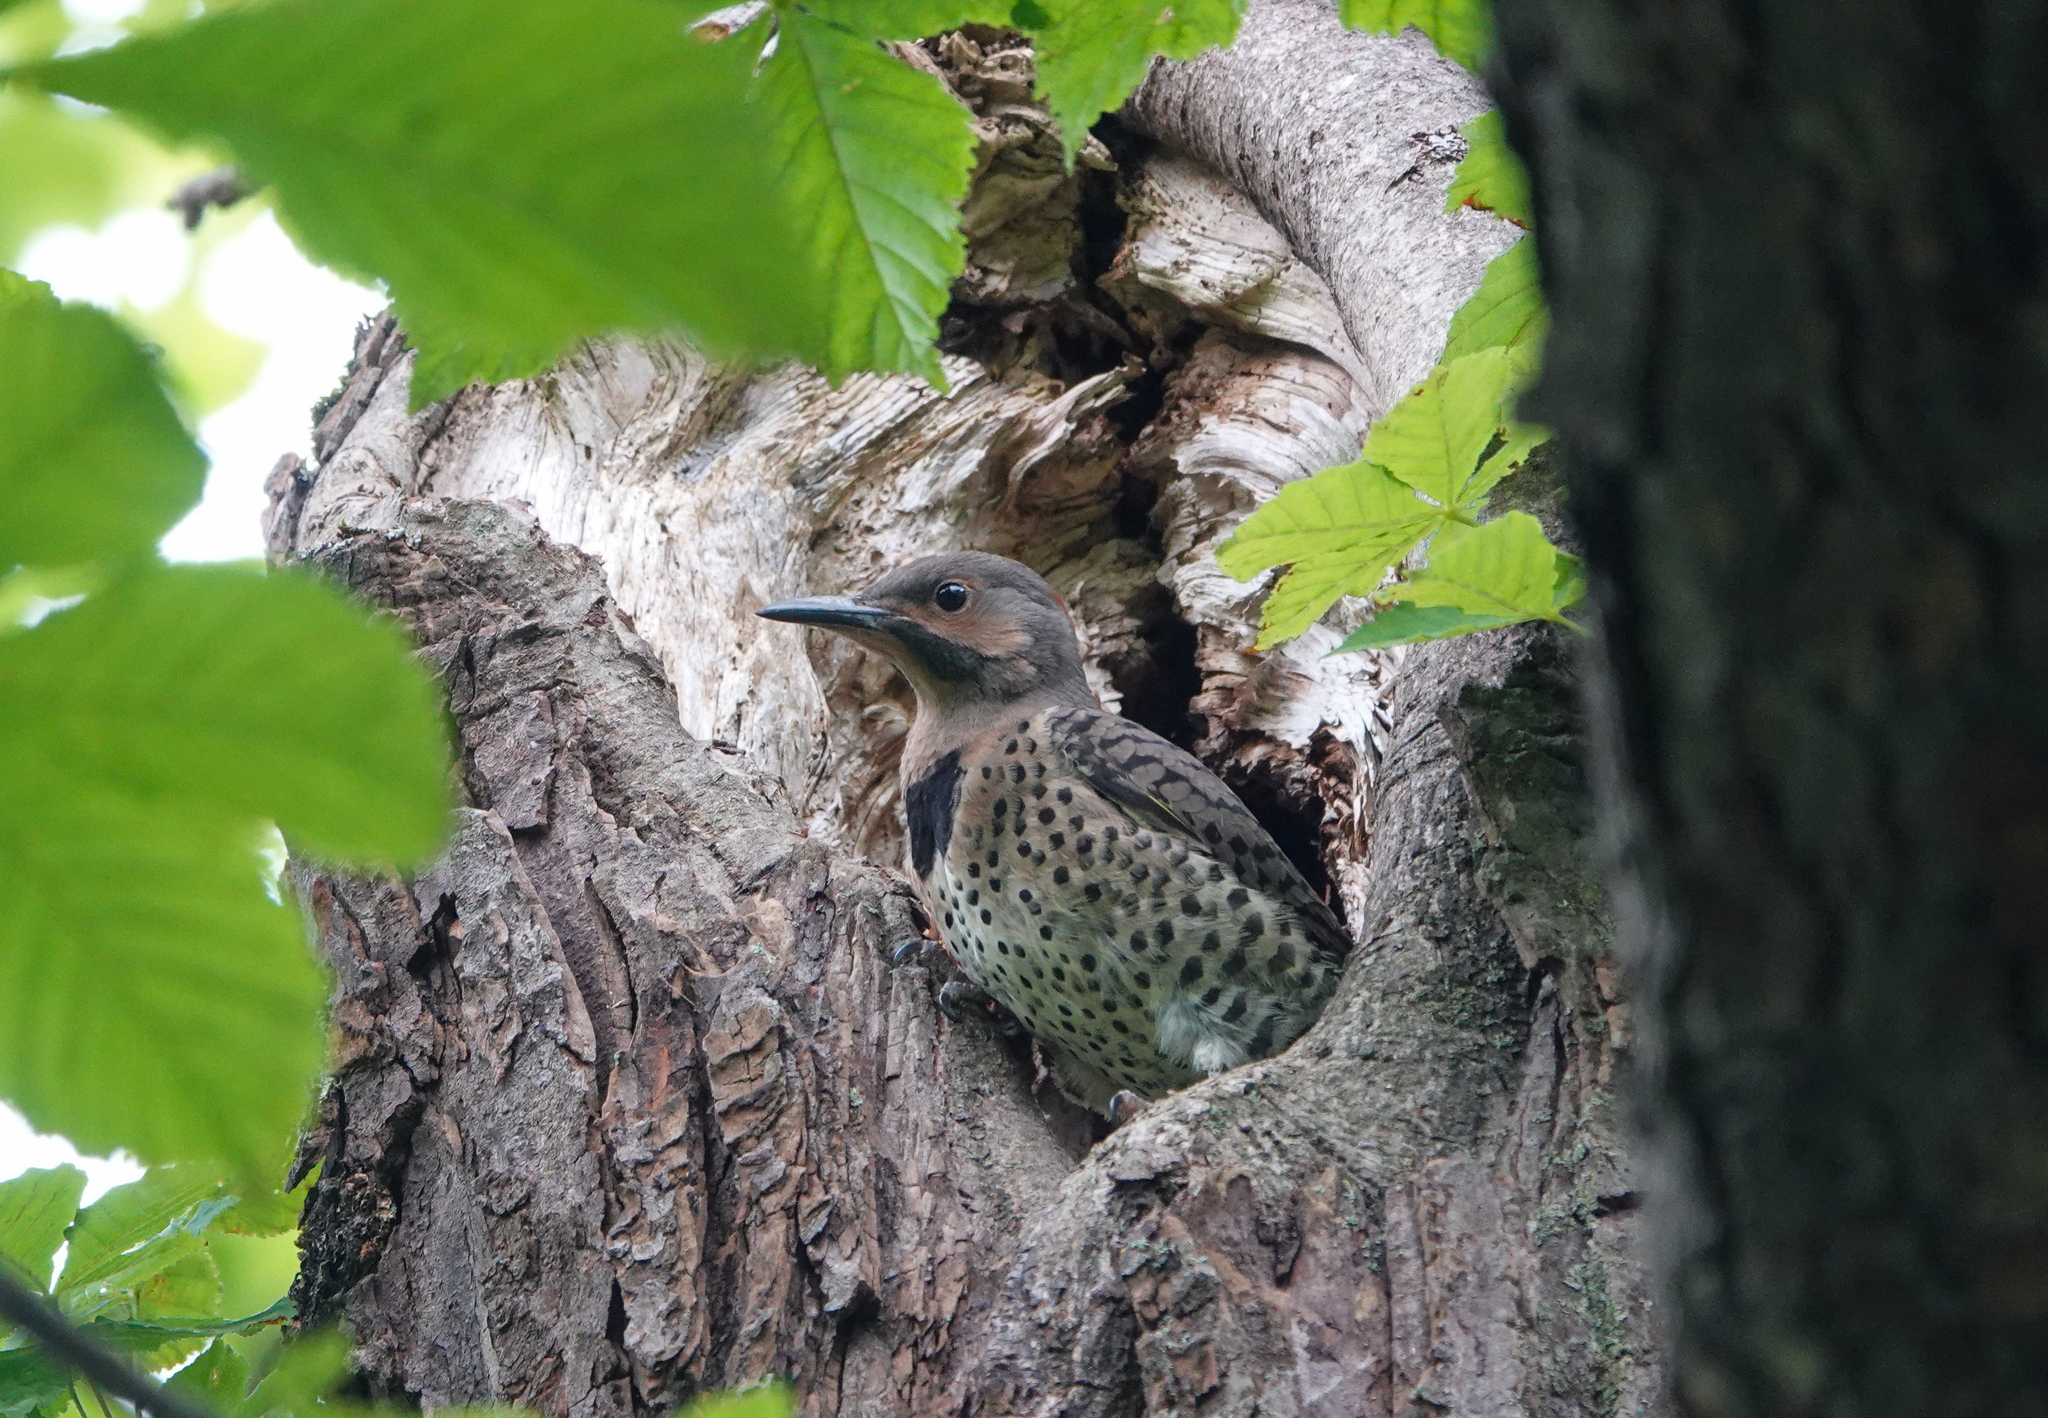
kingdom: Animalia
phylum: Chordata
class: Aves
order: Piciformes
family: Picidae
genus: Colaptes
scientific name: Colaptes auratus
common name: Northern flicker
